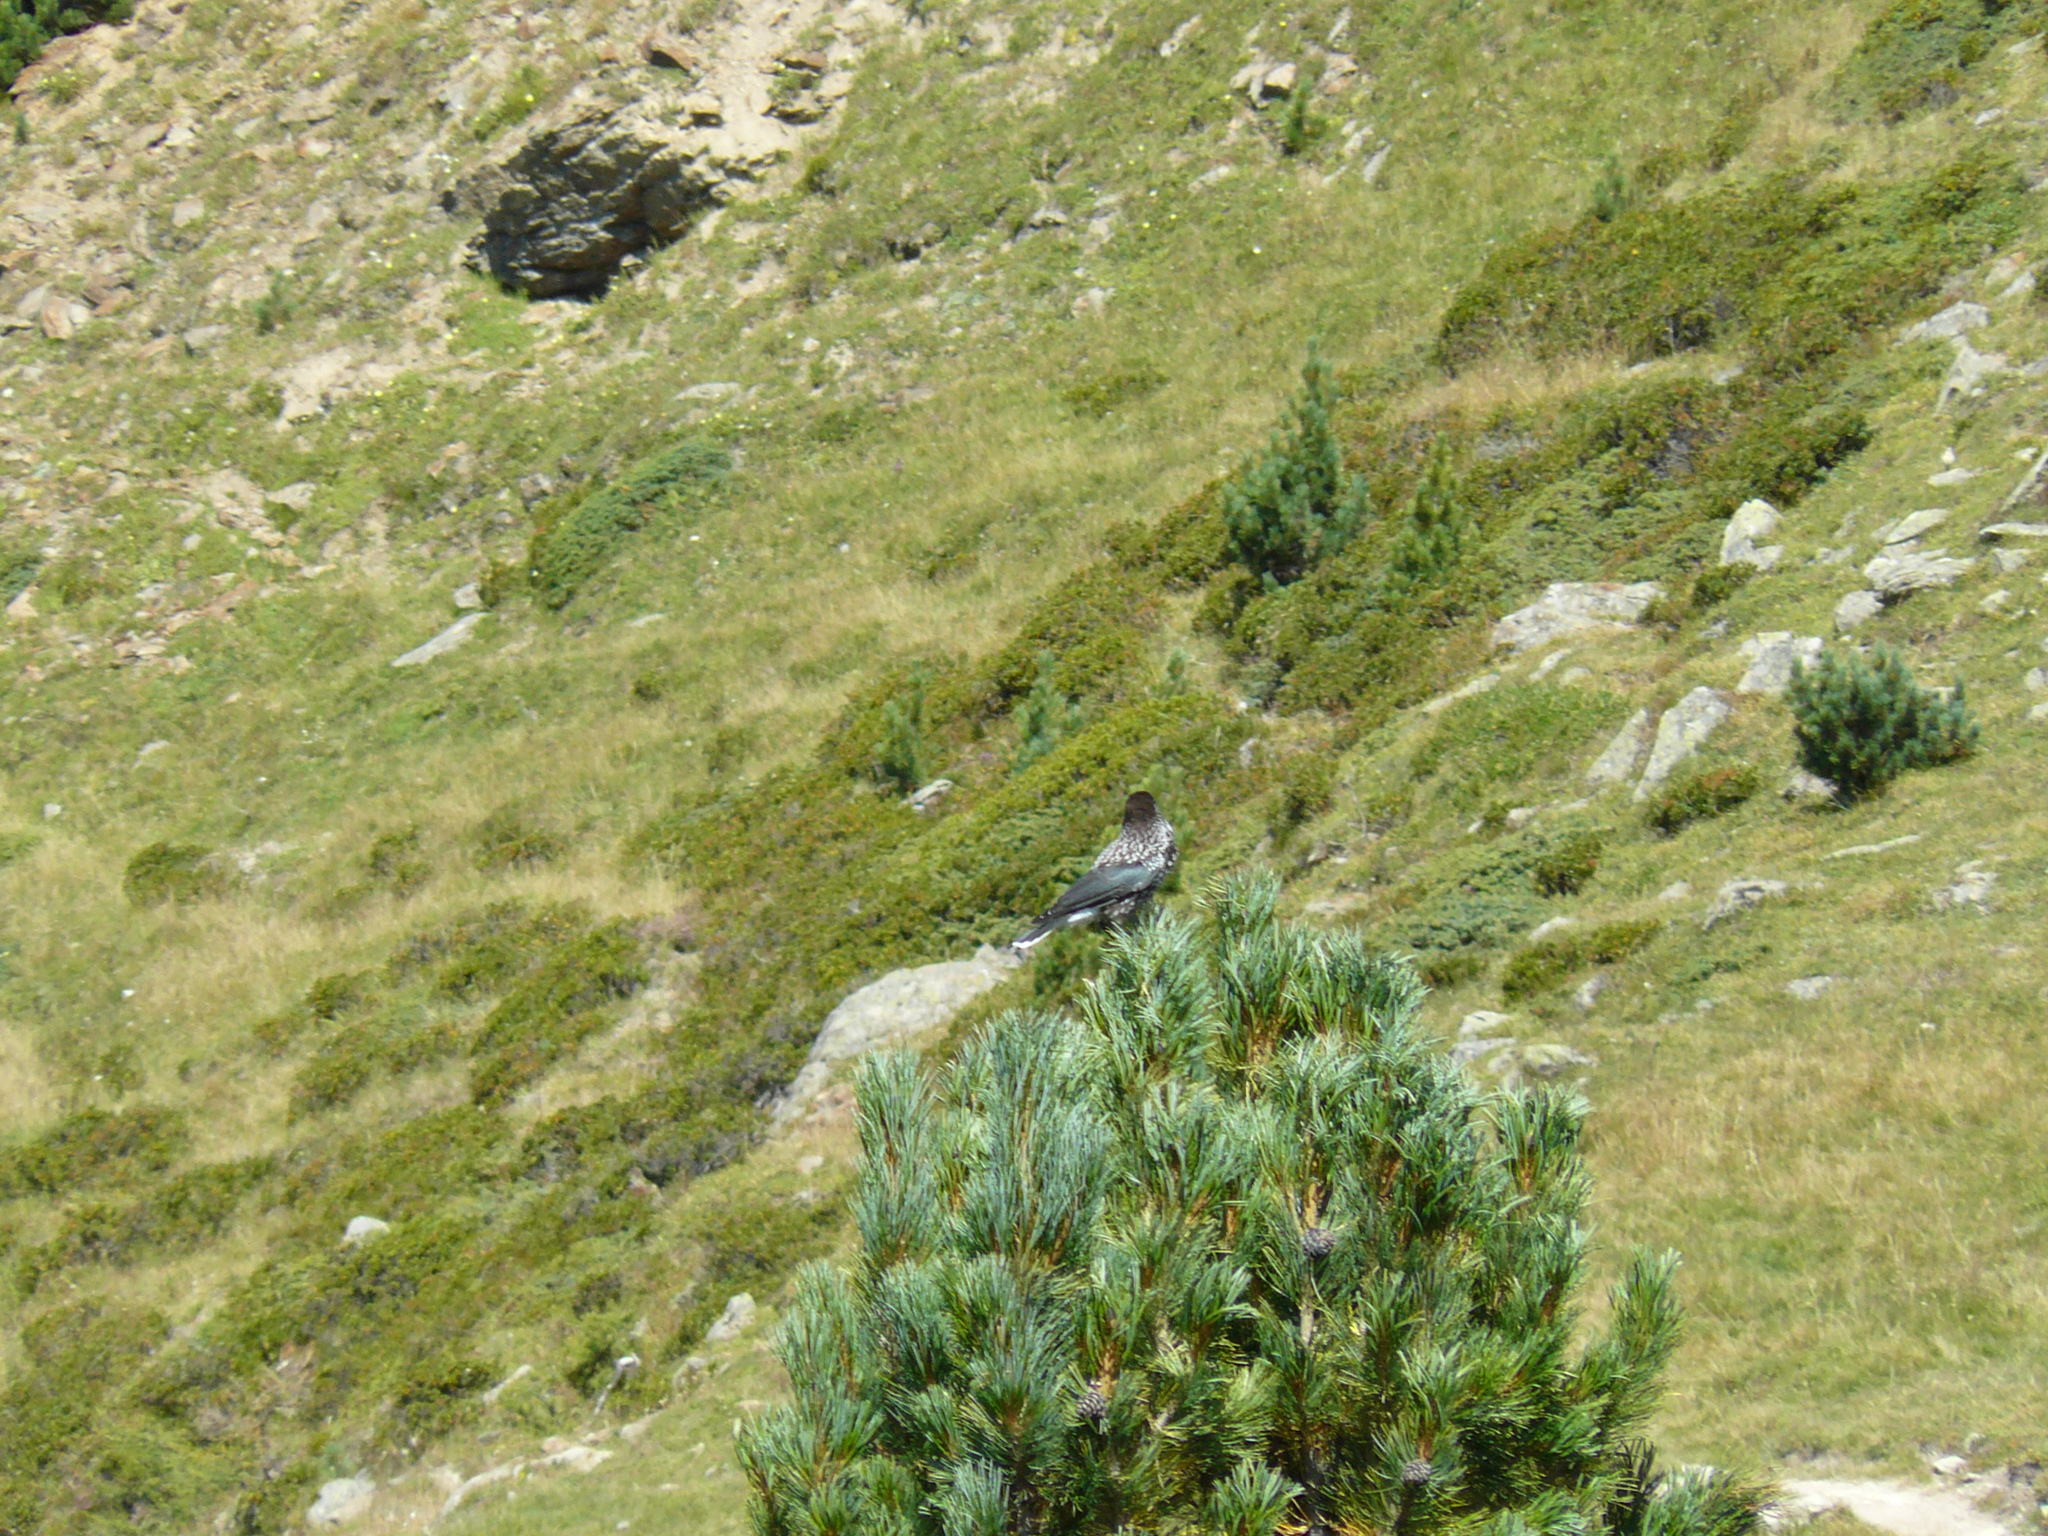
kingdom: Animalia
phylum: Chordata
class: Aves
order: Passeriformes
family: Corvidae
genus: Nucifraga
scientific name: Nucifraga caryocatactes
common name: Spotted nutcracker
